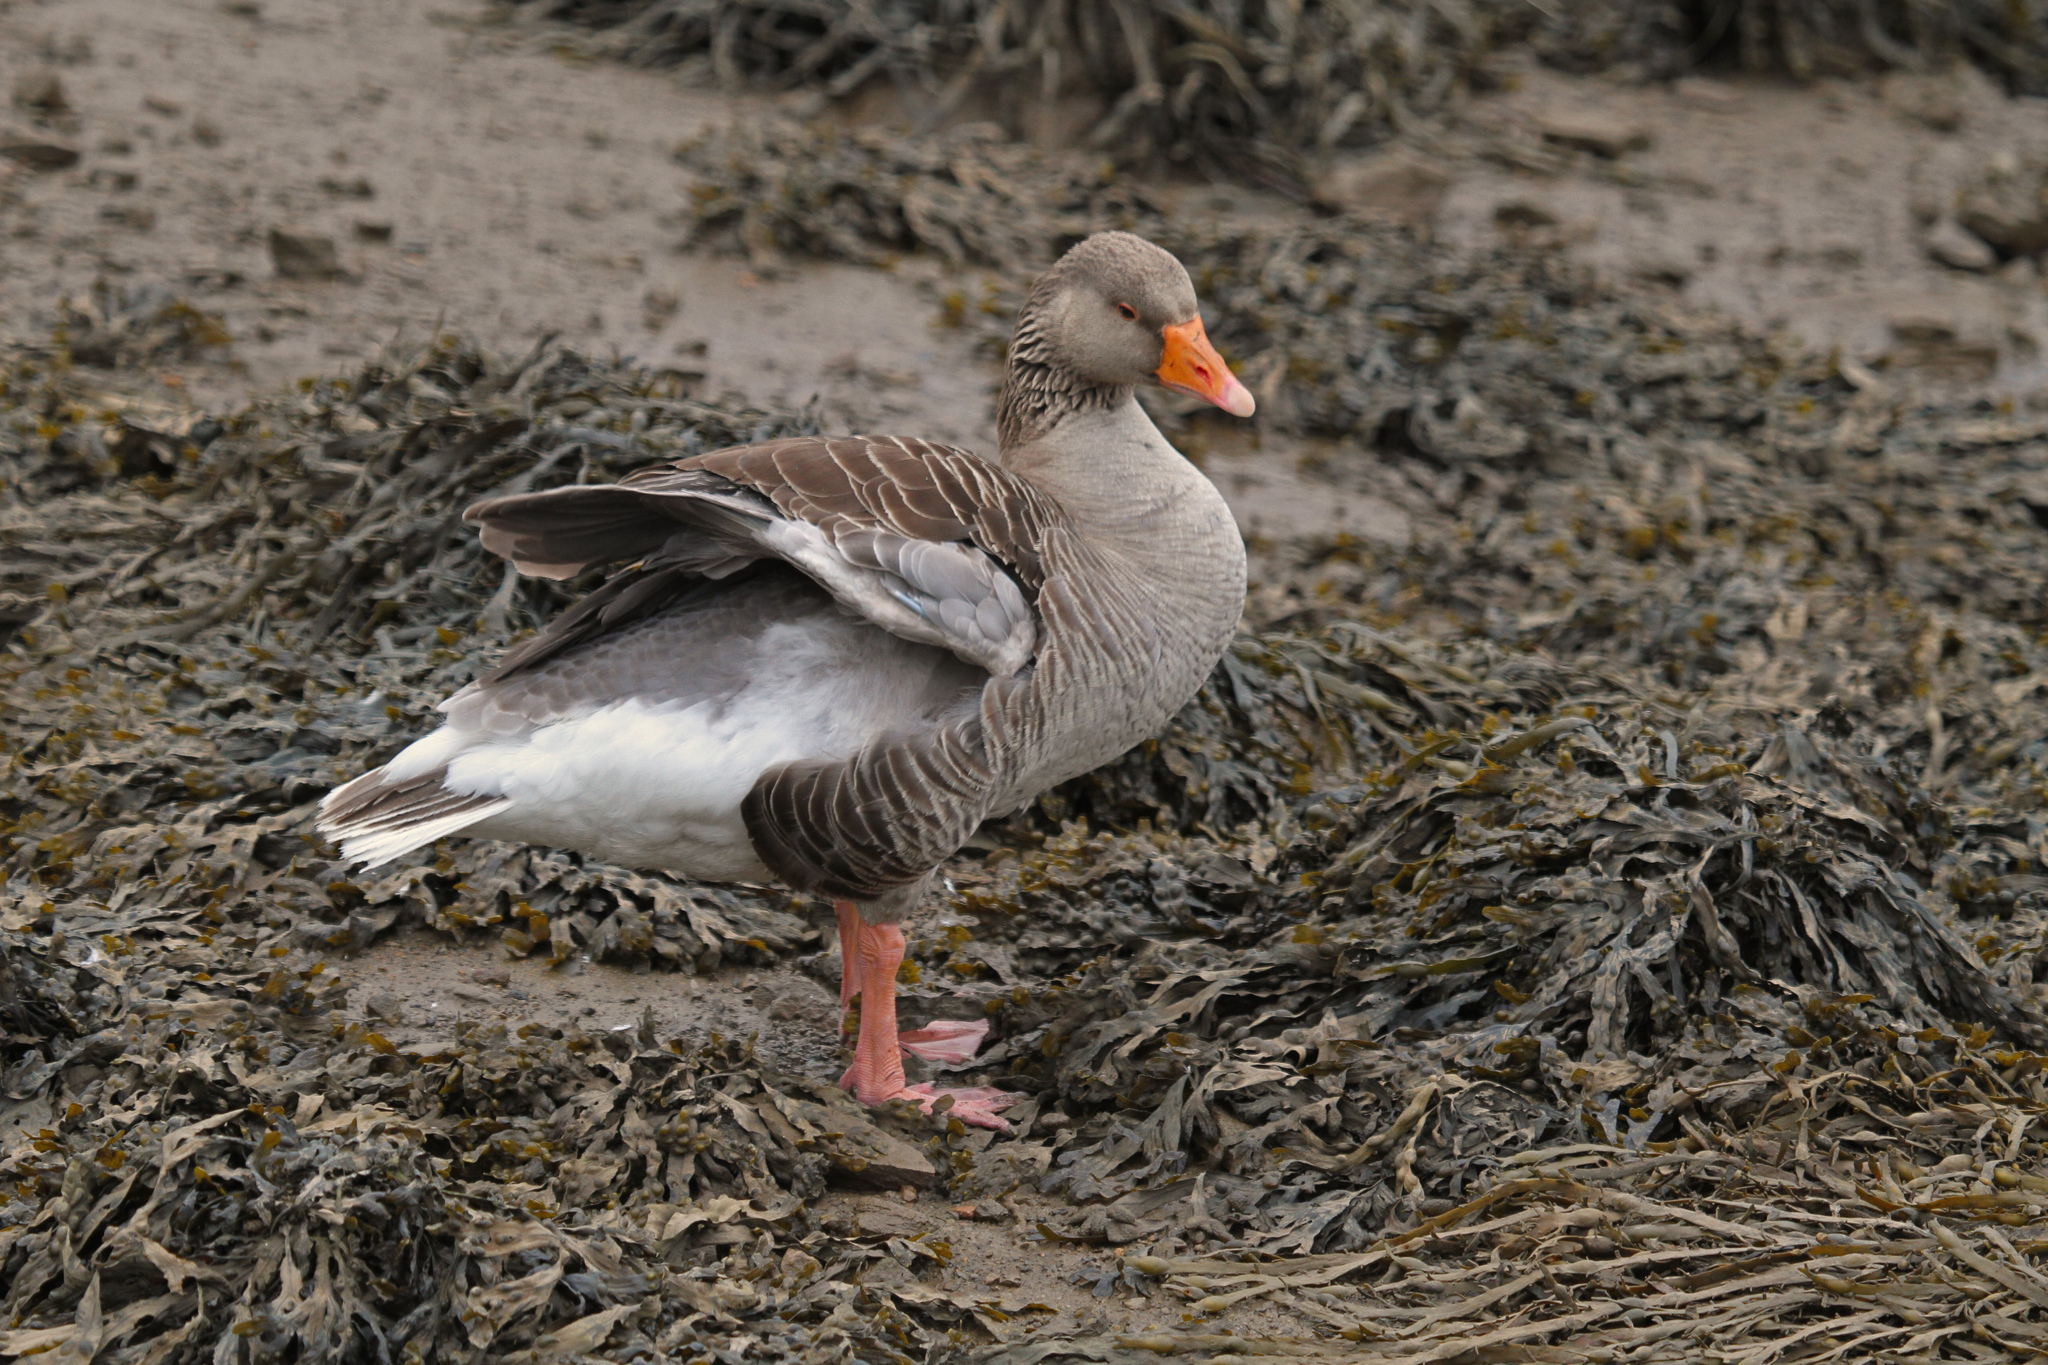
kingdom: Animalia
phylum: Chordata
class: Aves
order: Anseriformes
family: Anatidae
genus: Anser
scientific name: Anser anser
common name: Greylag goose
